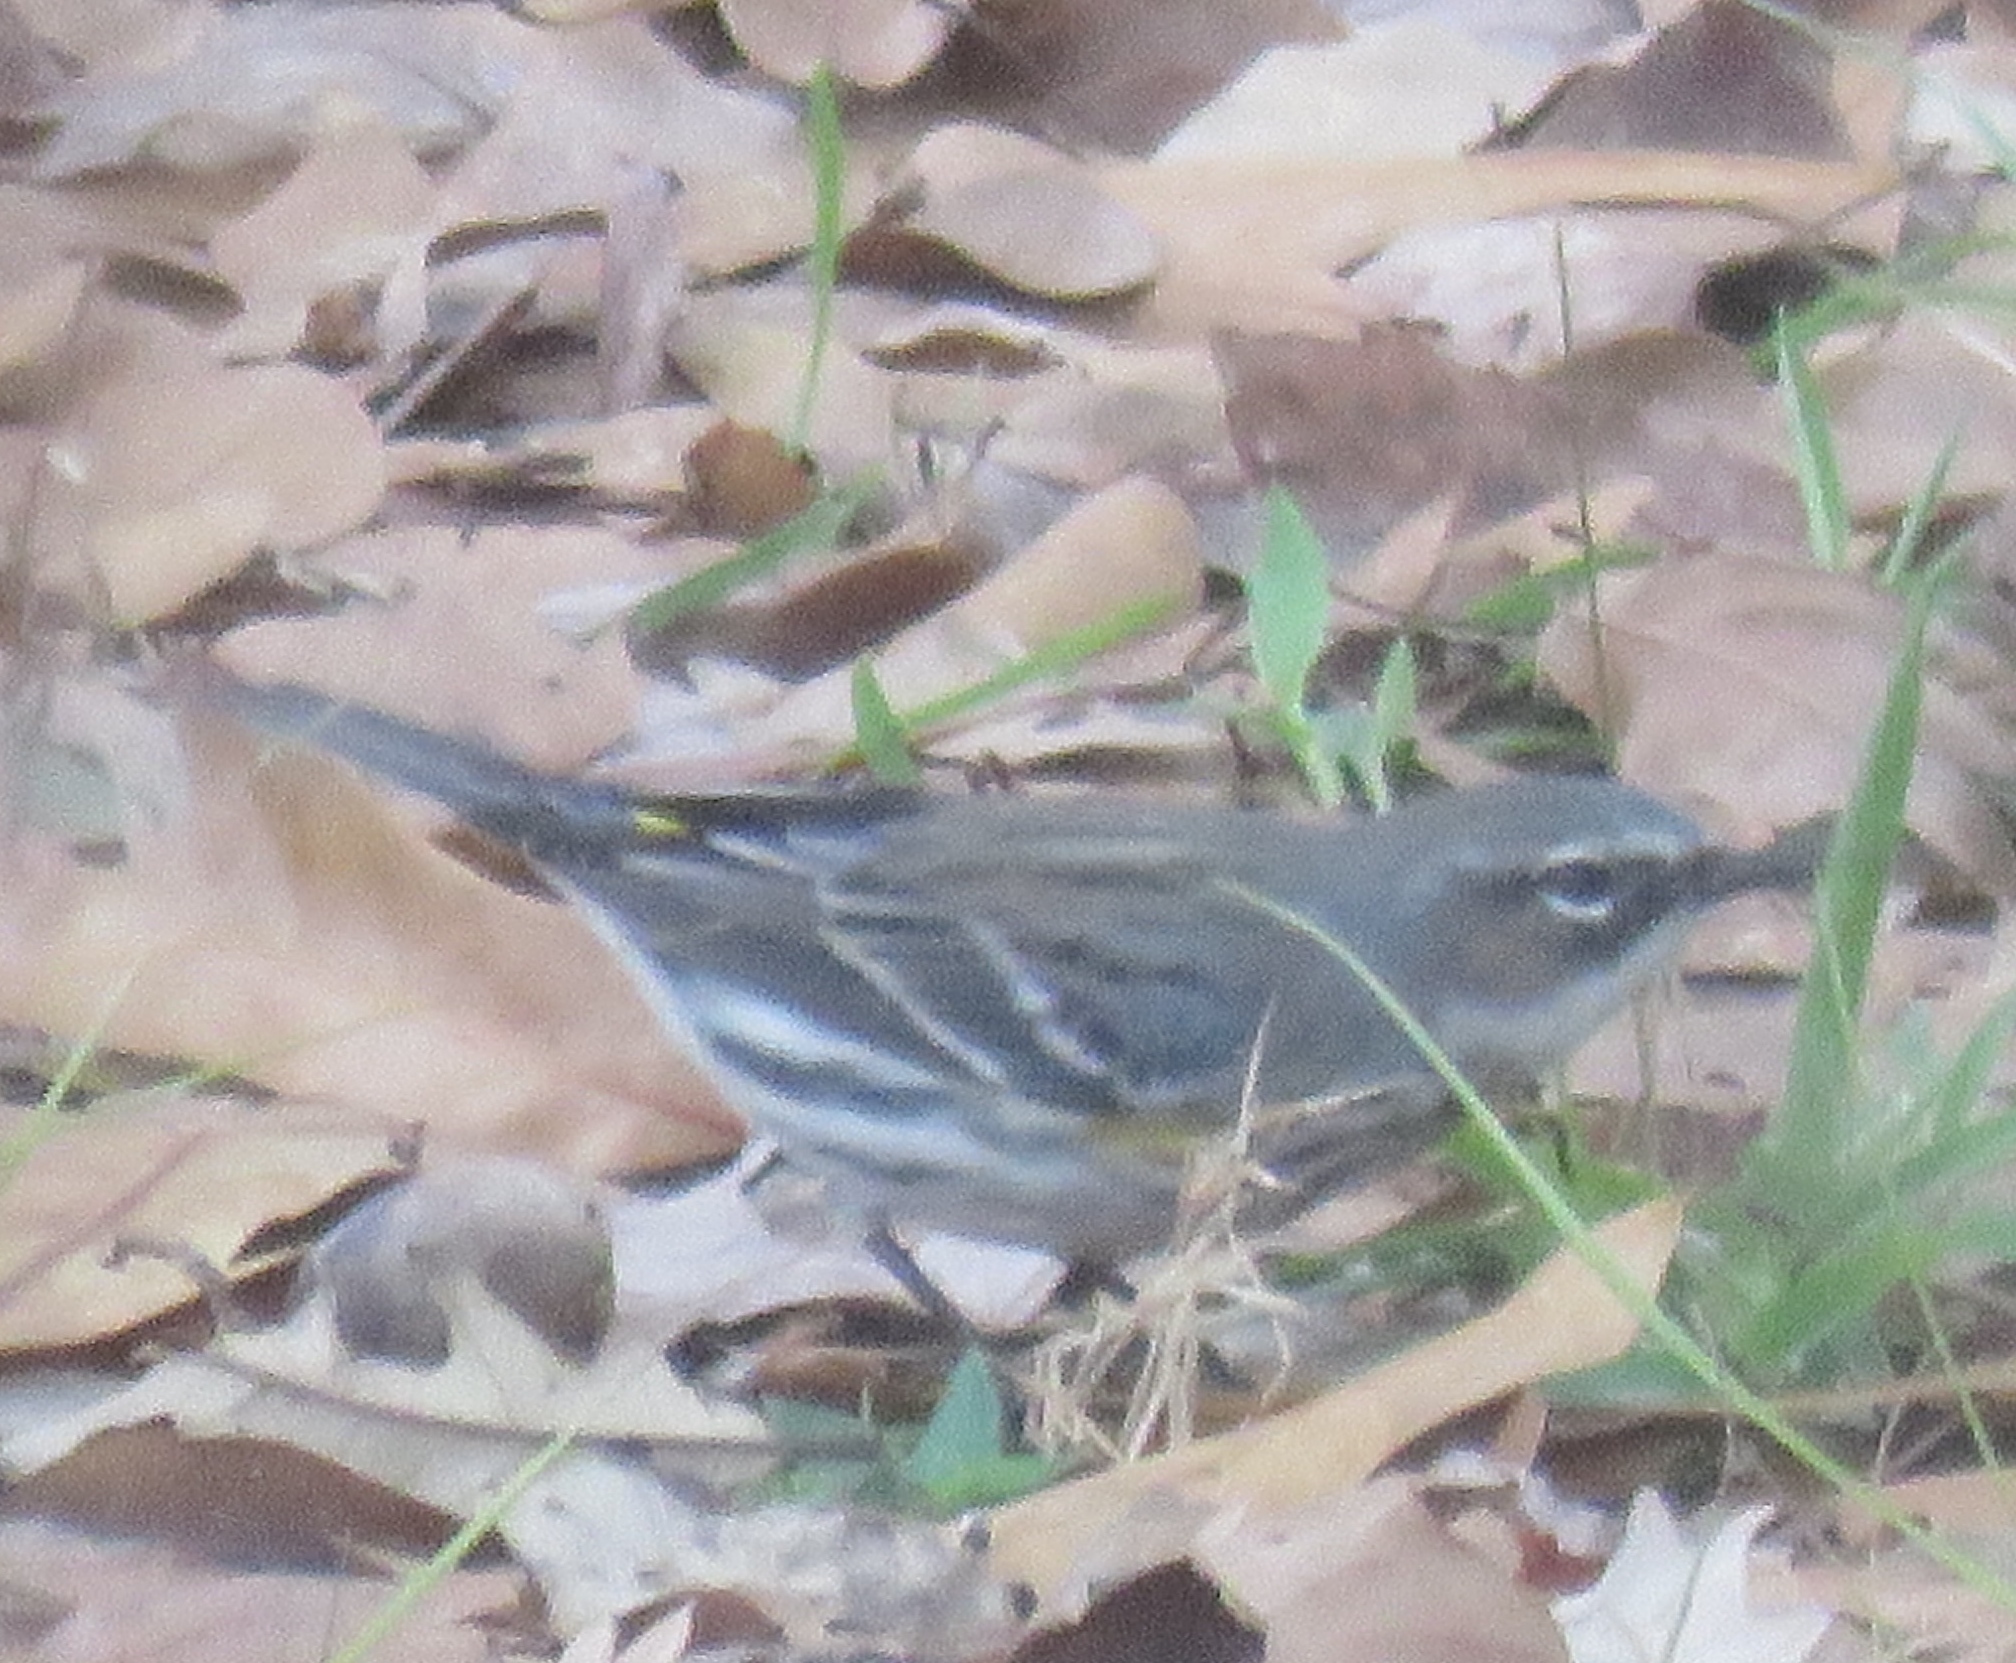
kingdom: Animalia
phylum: Chordata
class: Aves
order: Passeriformes
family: Parulidae
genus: Setophaga
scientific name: Setophaga coronata
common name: Myrtle warbler
